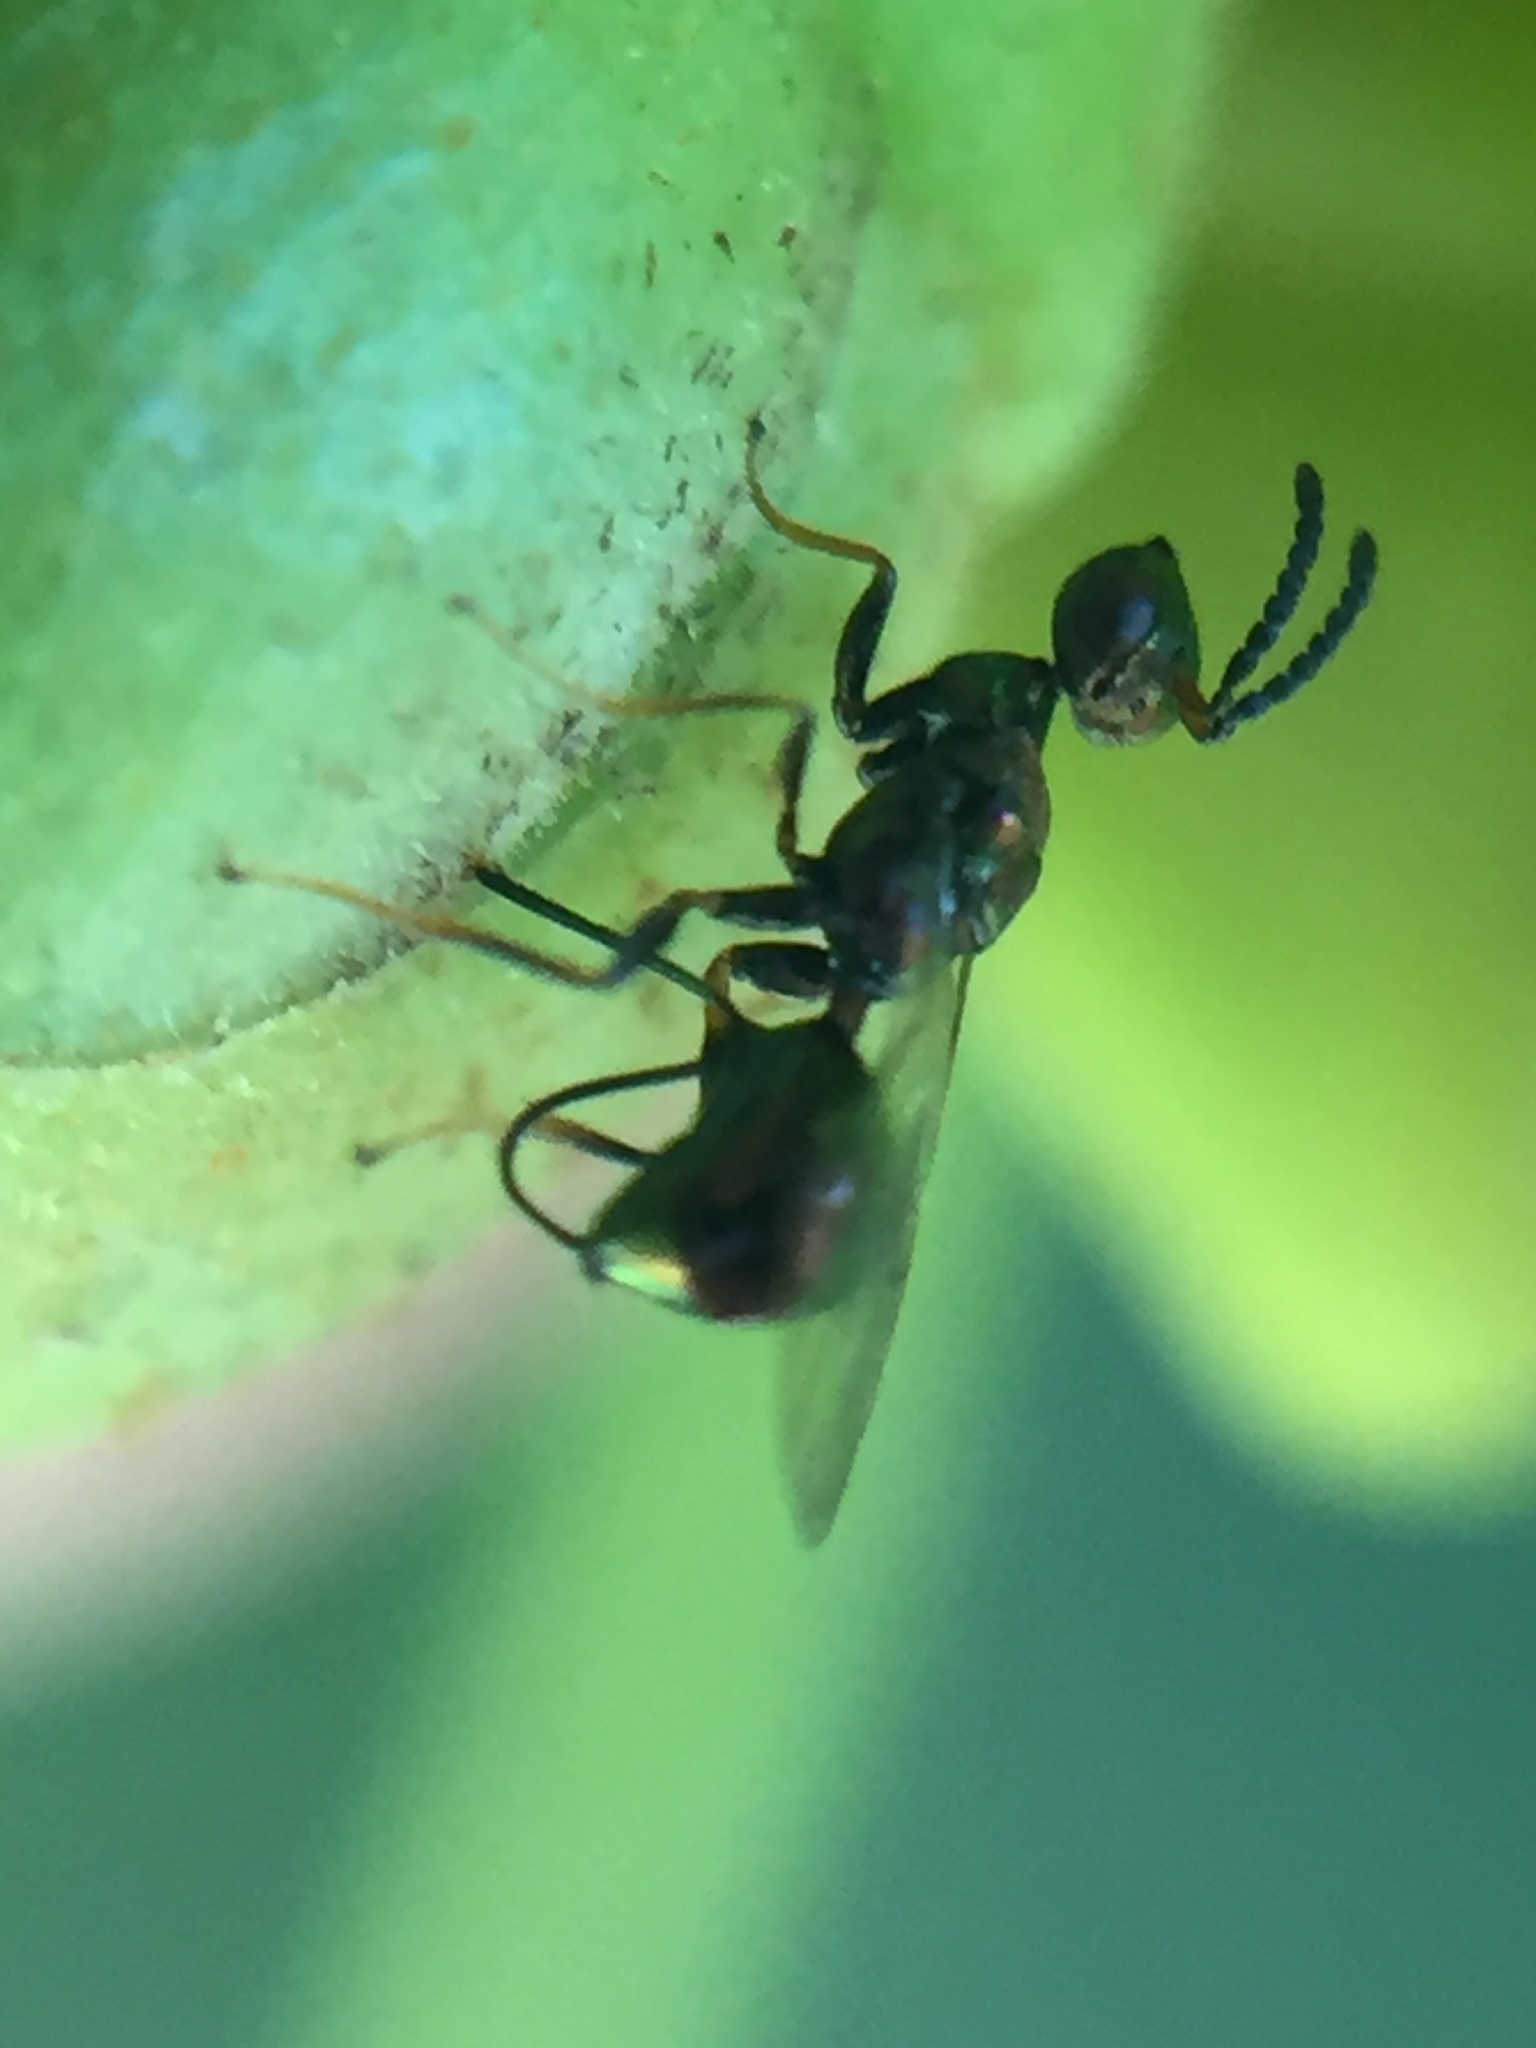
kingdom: Animalia
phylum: Arthropoda
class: Insecta
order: Hymenoptera
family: Agaonidae
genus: Pseudidarnes
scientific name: Pseudidarnes minerva
